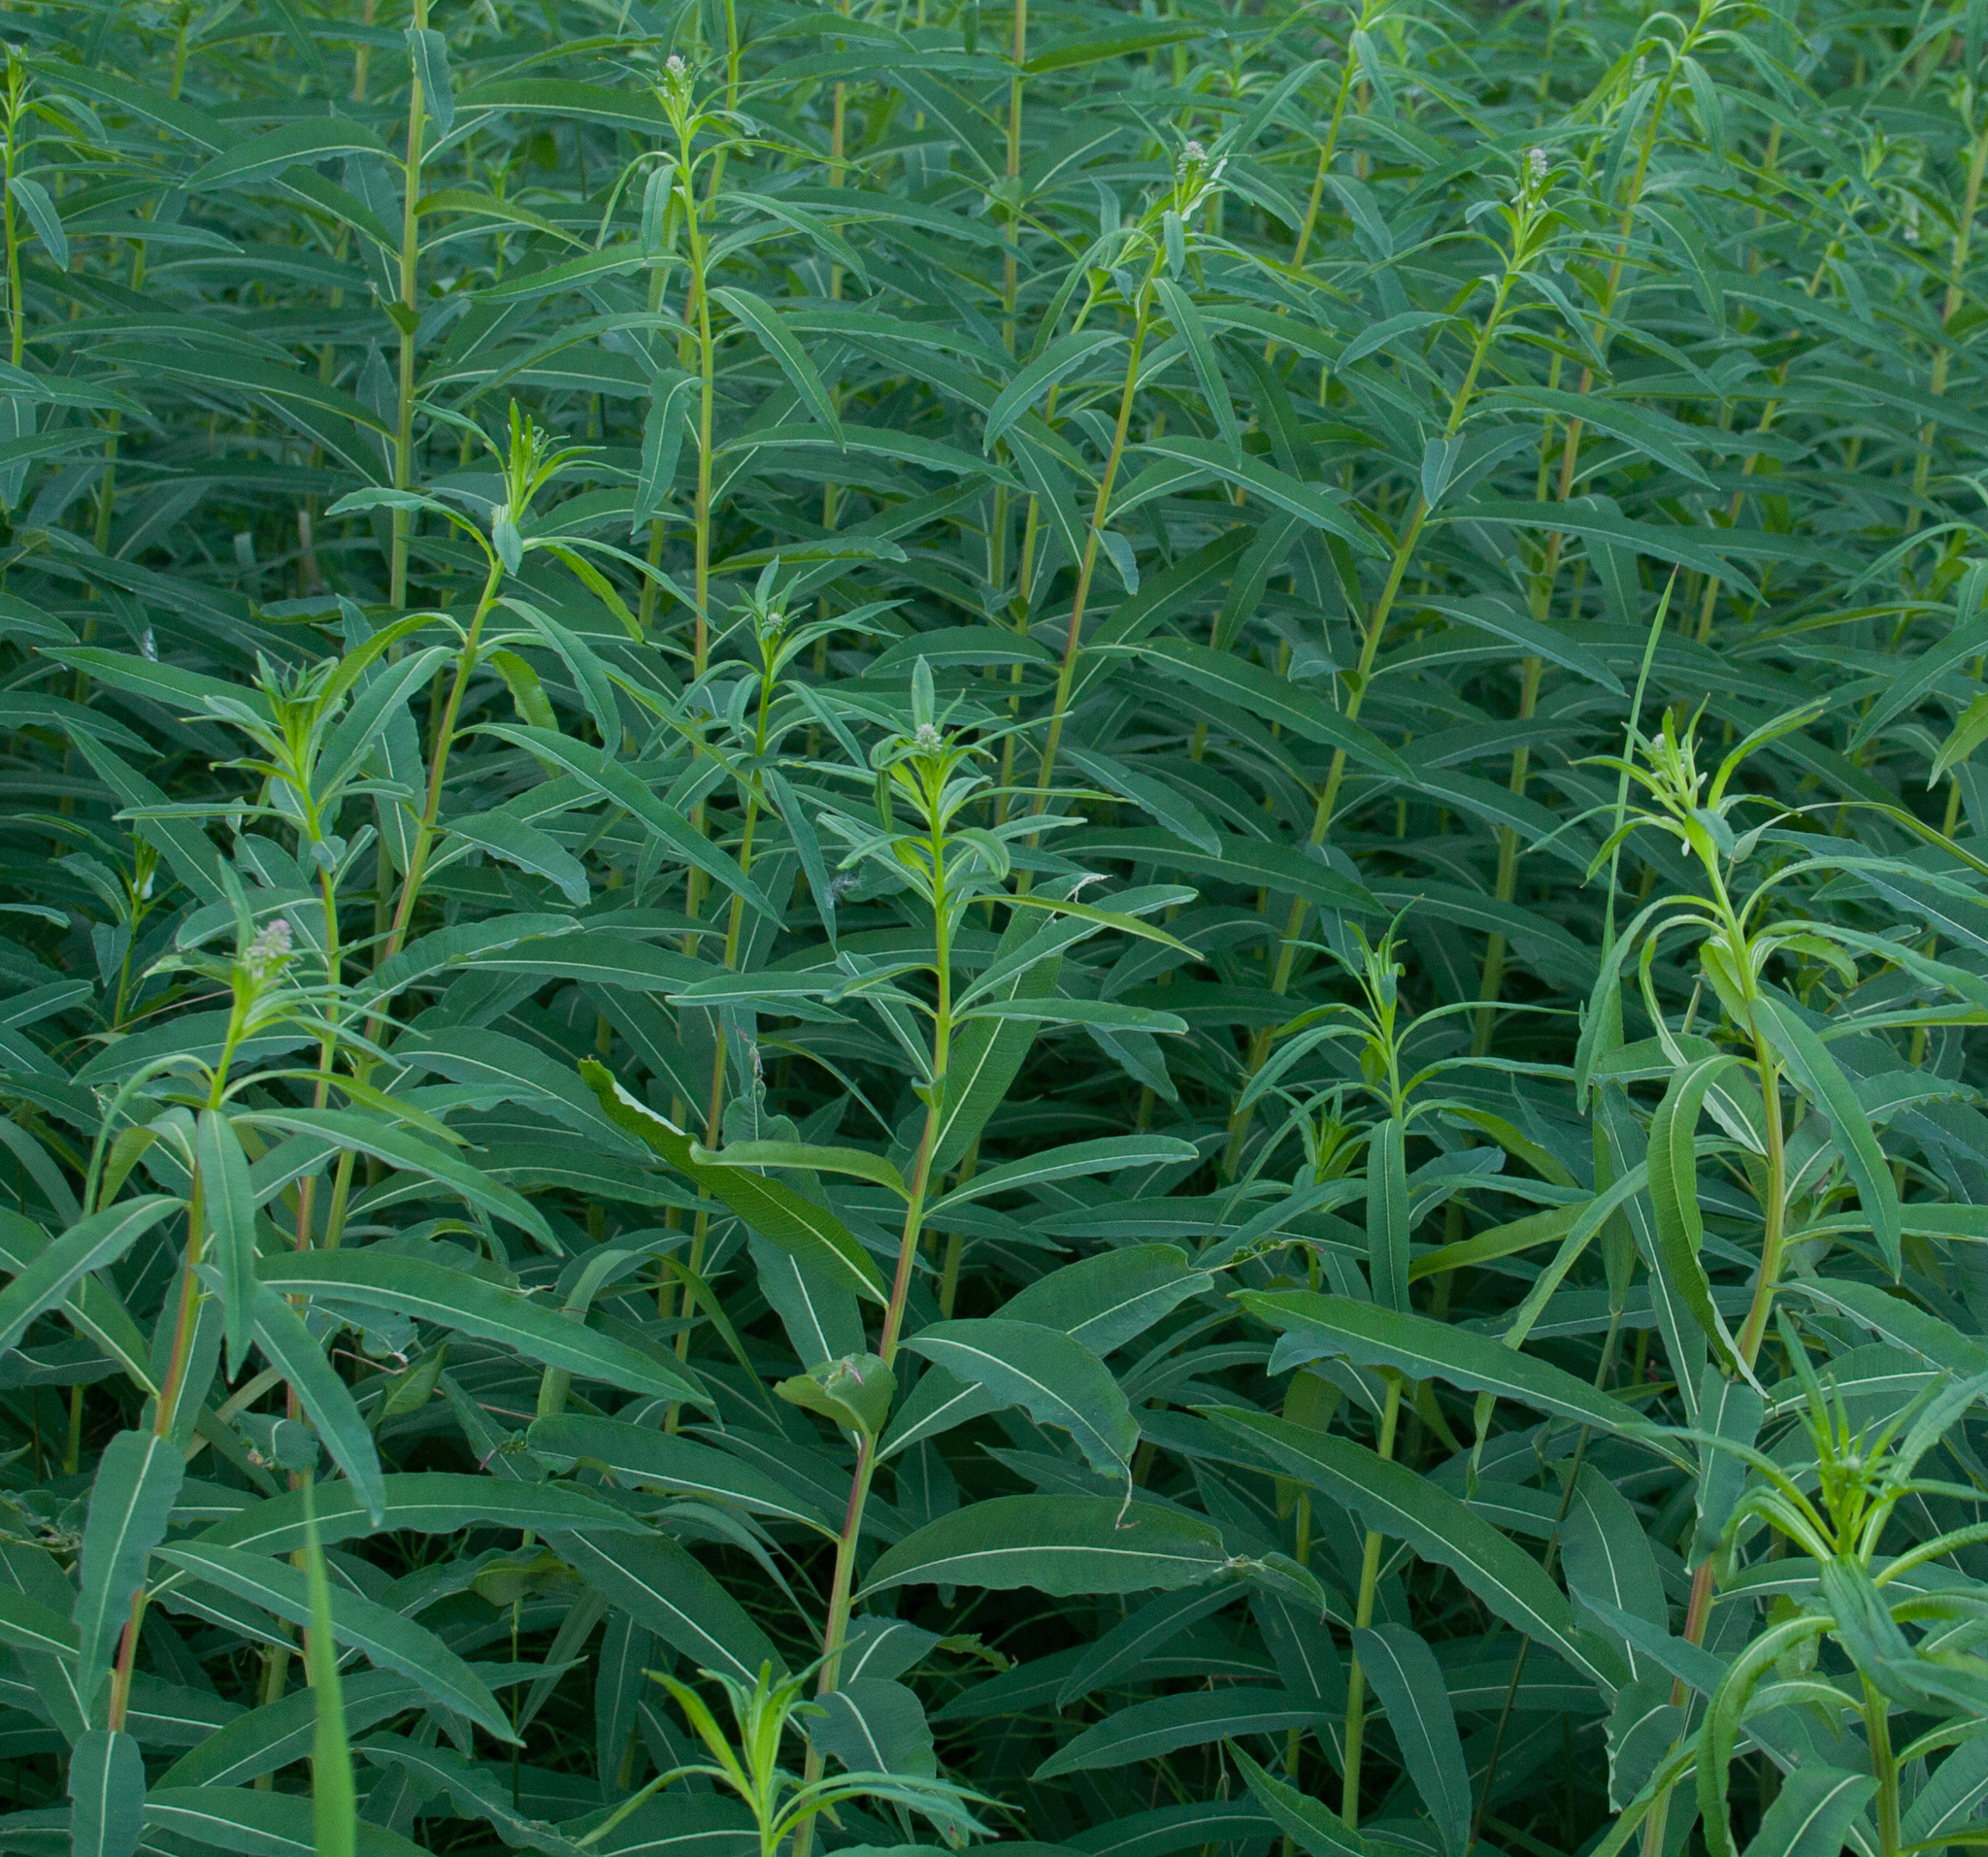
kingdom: Plantae
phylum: Tracheophyta
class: Magnoliopsida
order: Myrtales
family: Onagraceae
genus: Chamaenerion
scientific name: Chamaenerion angustifolium
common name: Fireweed
